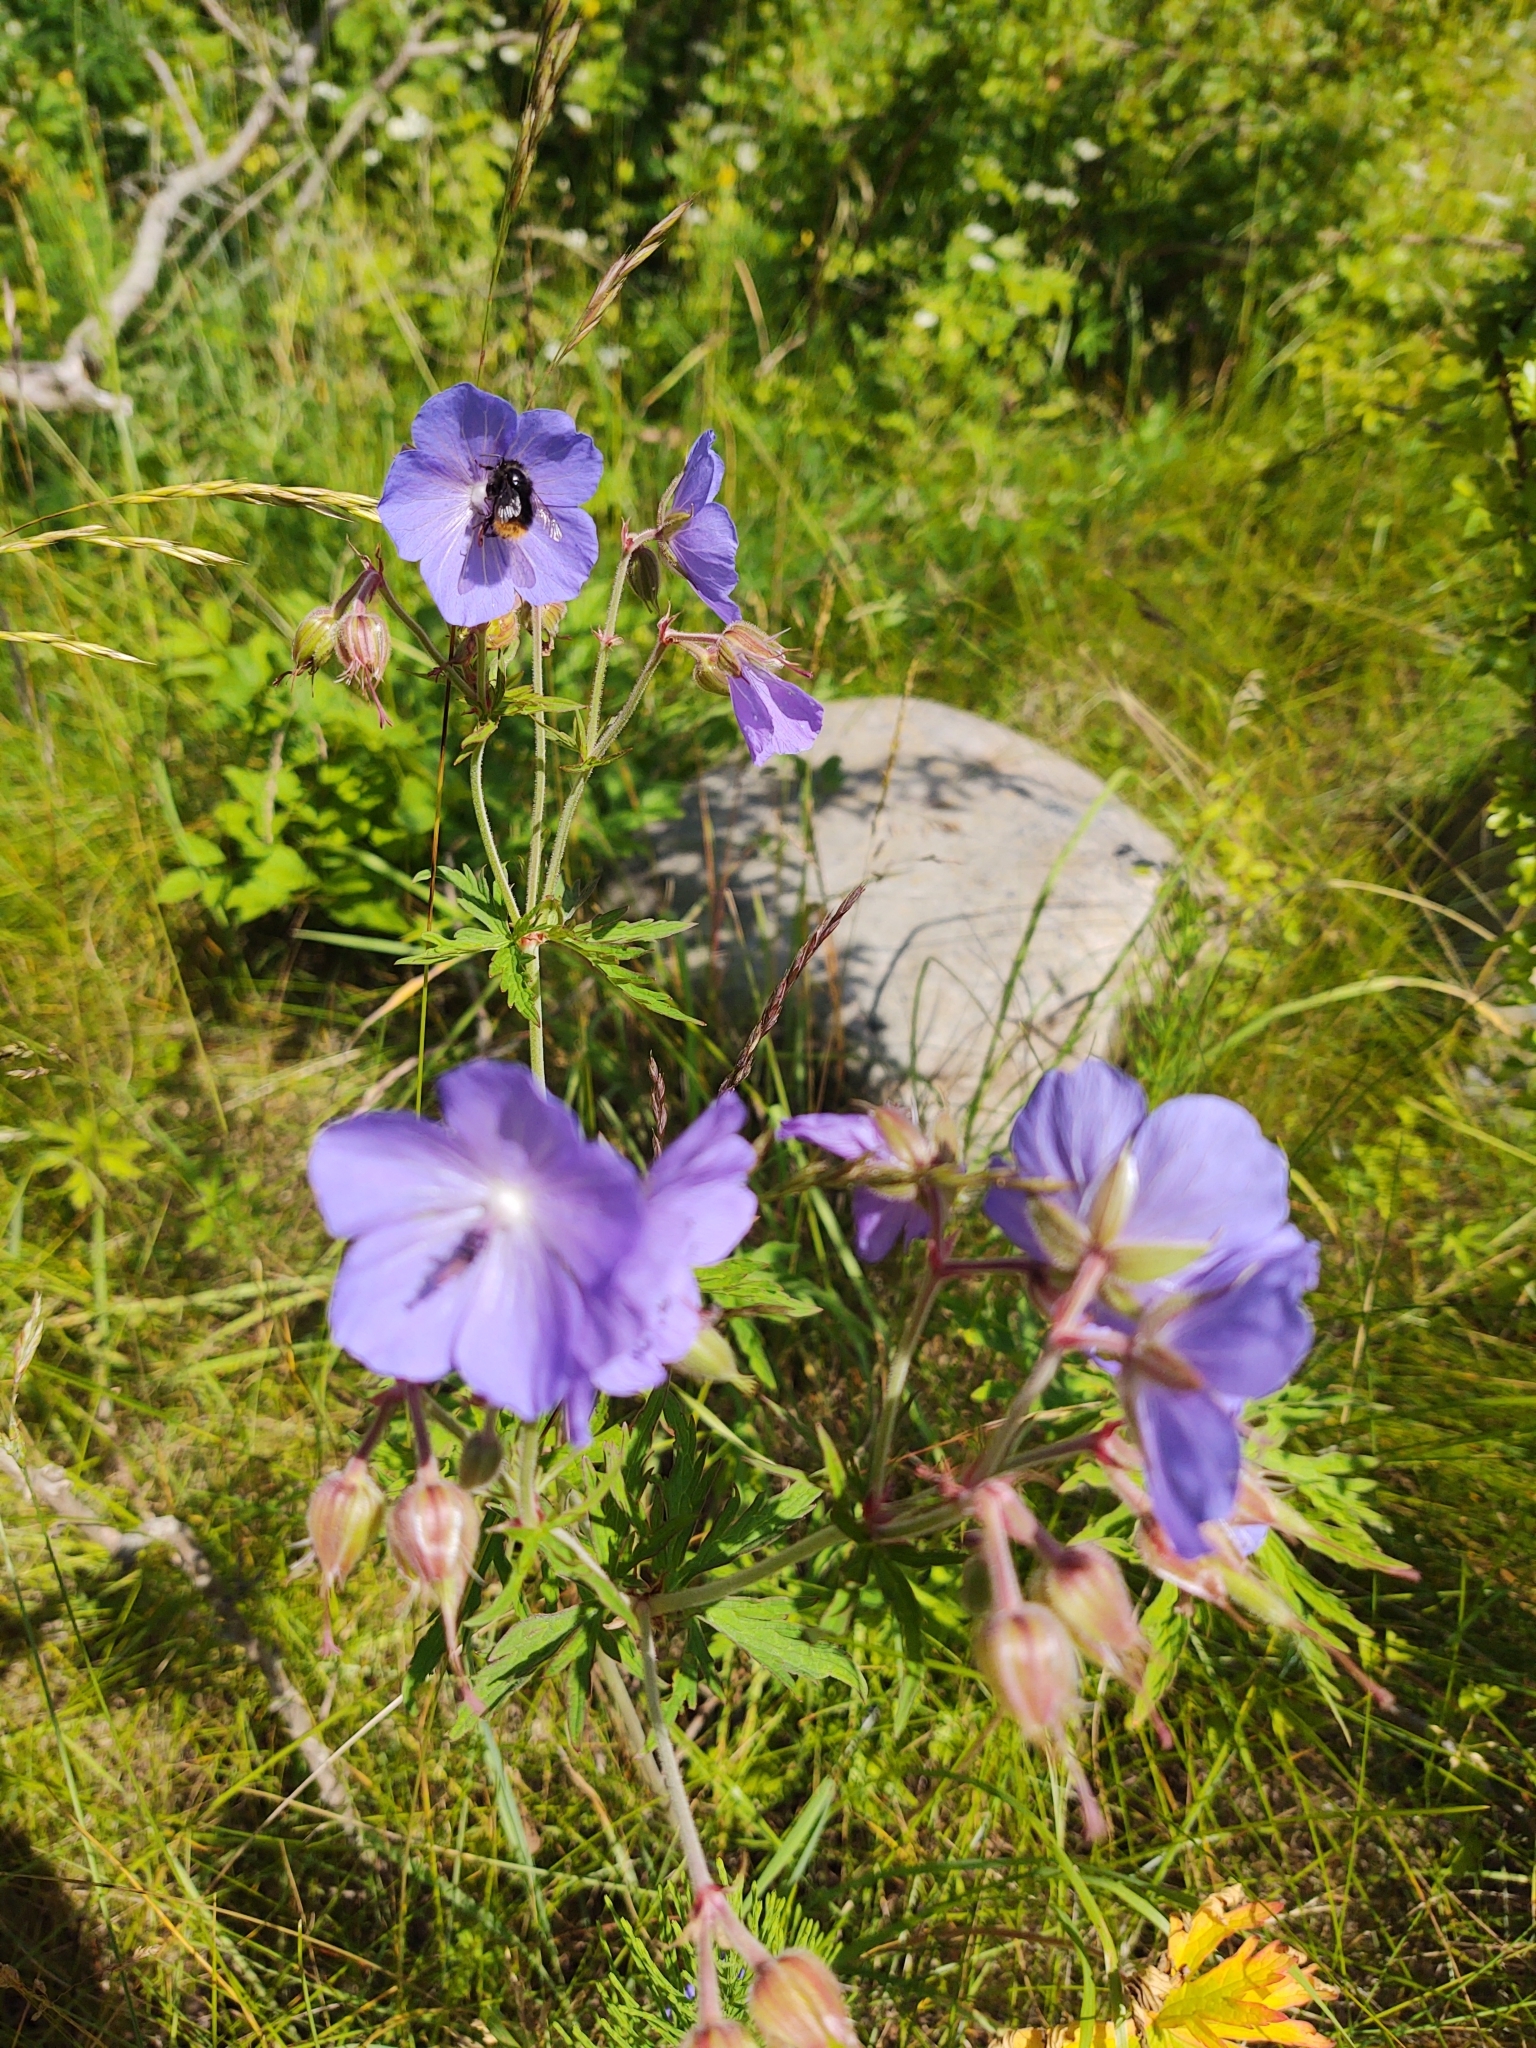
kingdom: Plantae
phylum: Tracheophyta
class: Magnoliopsida
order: Geraniales
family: Geraniaceae
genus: Geranium
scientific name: Geranium pratense
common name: Meadow crane's-bill
